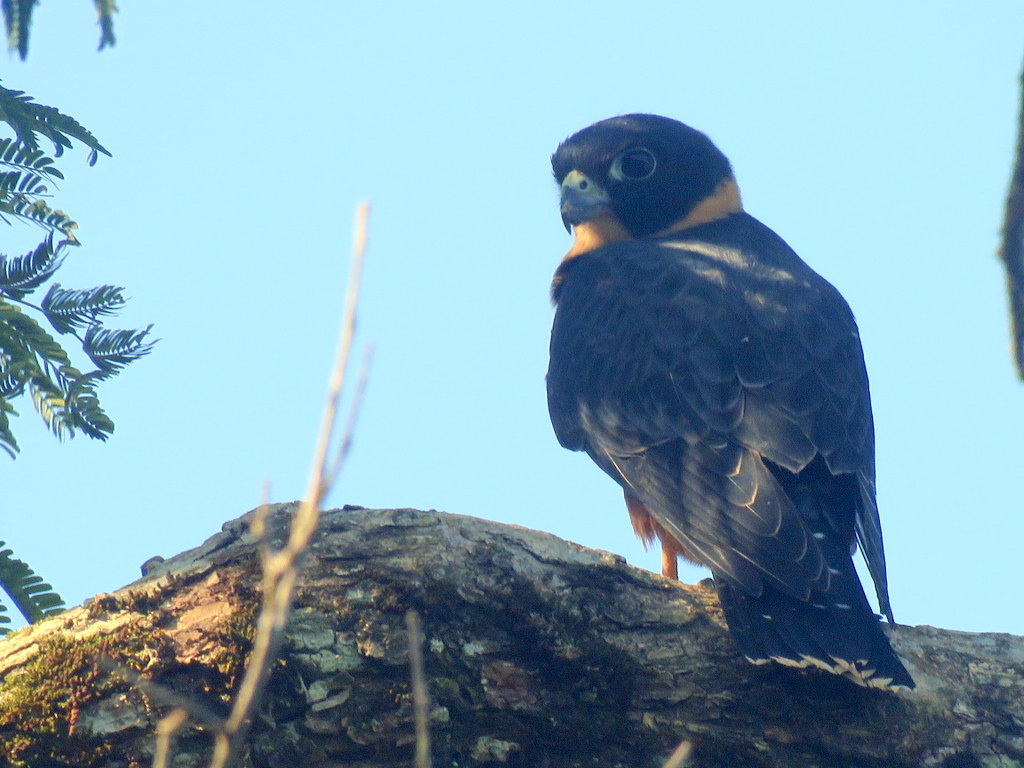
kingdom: Animalia
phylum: Chordata
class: Aves
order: Falconiformes
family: Falconidae
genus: Falco
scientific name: Falco rufigularis
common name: Bat falcon
